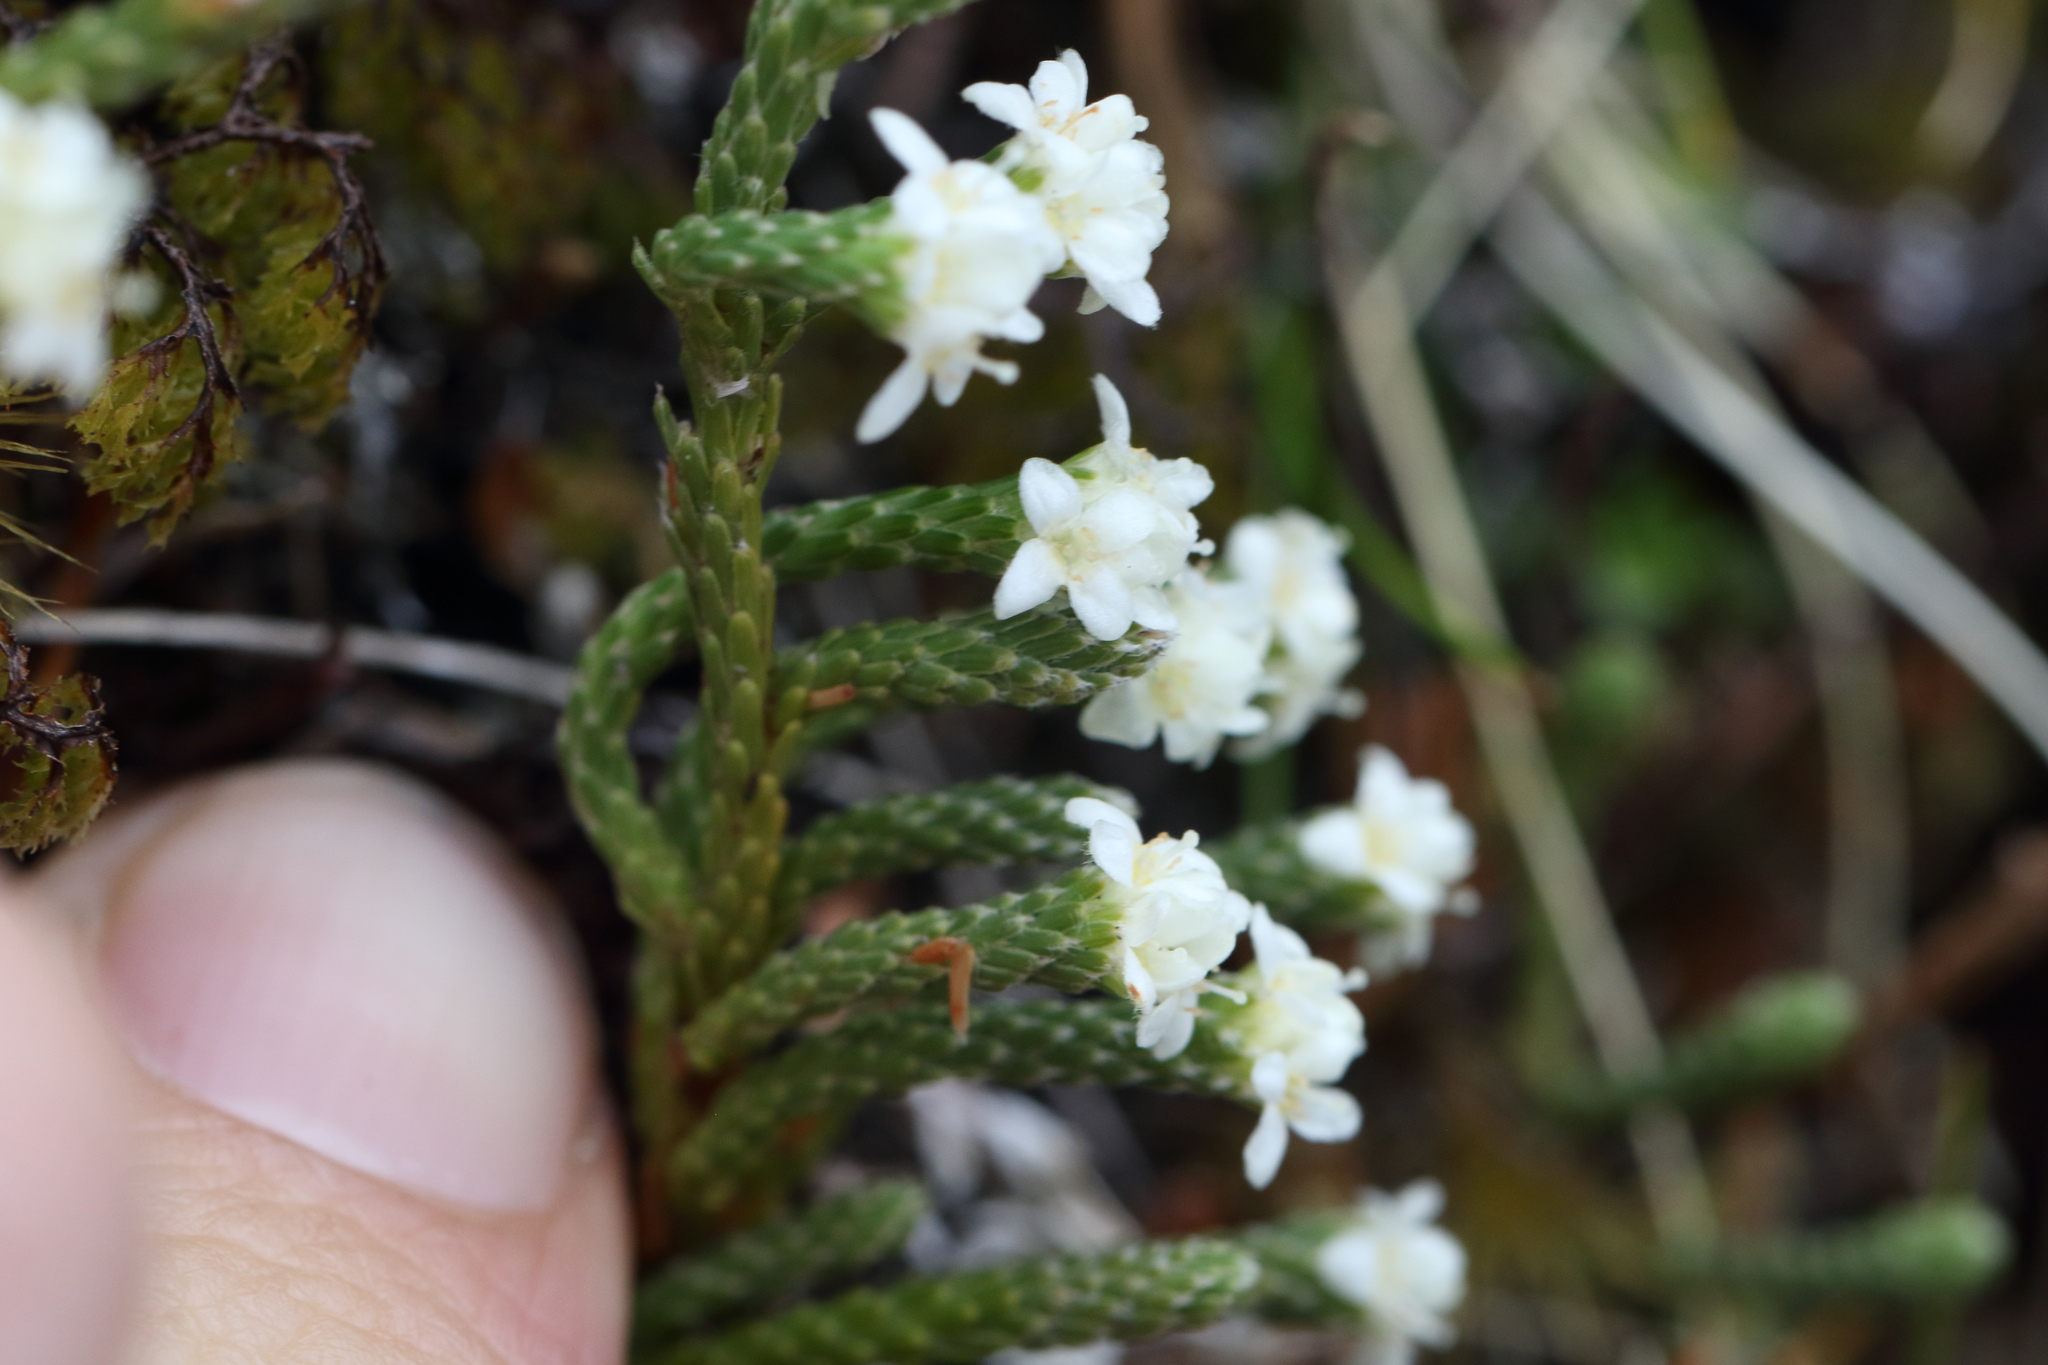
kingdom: Plantae
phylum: Tracheophyta
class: Magnoliopsida
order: Malvales
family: Thymelaeaceae
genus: Kelleria
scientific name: Kelleria dieffenbachii
